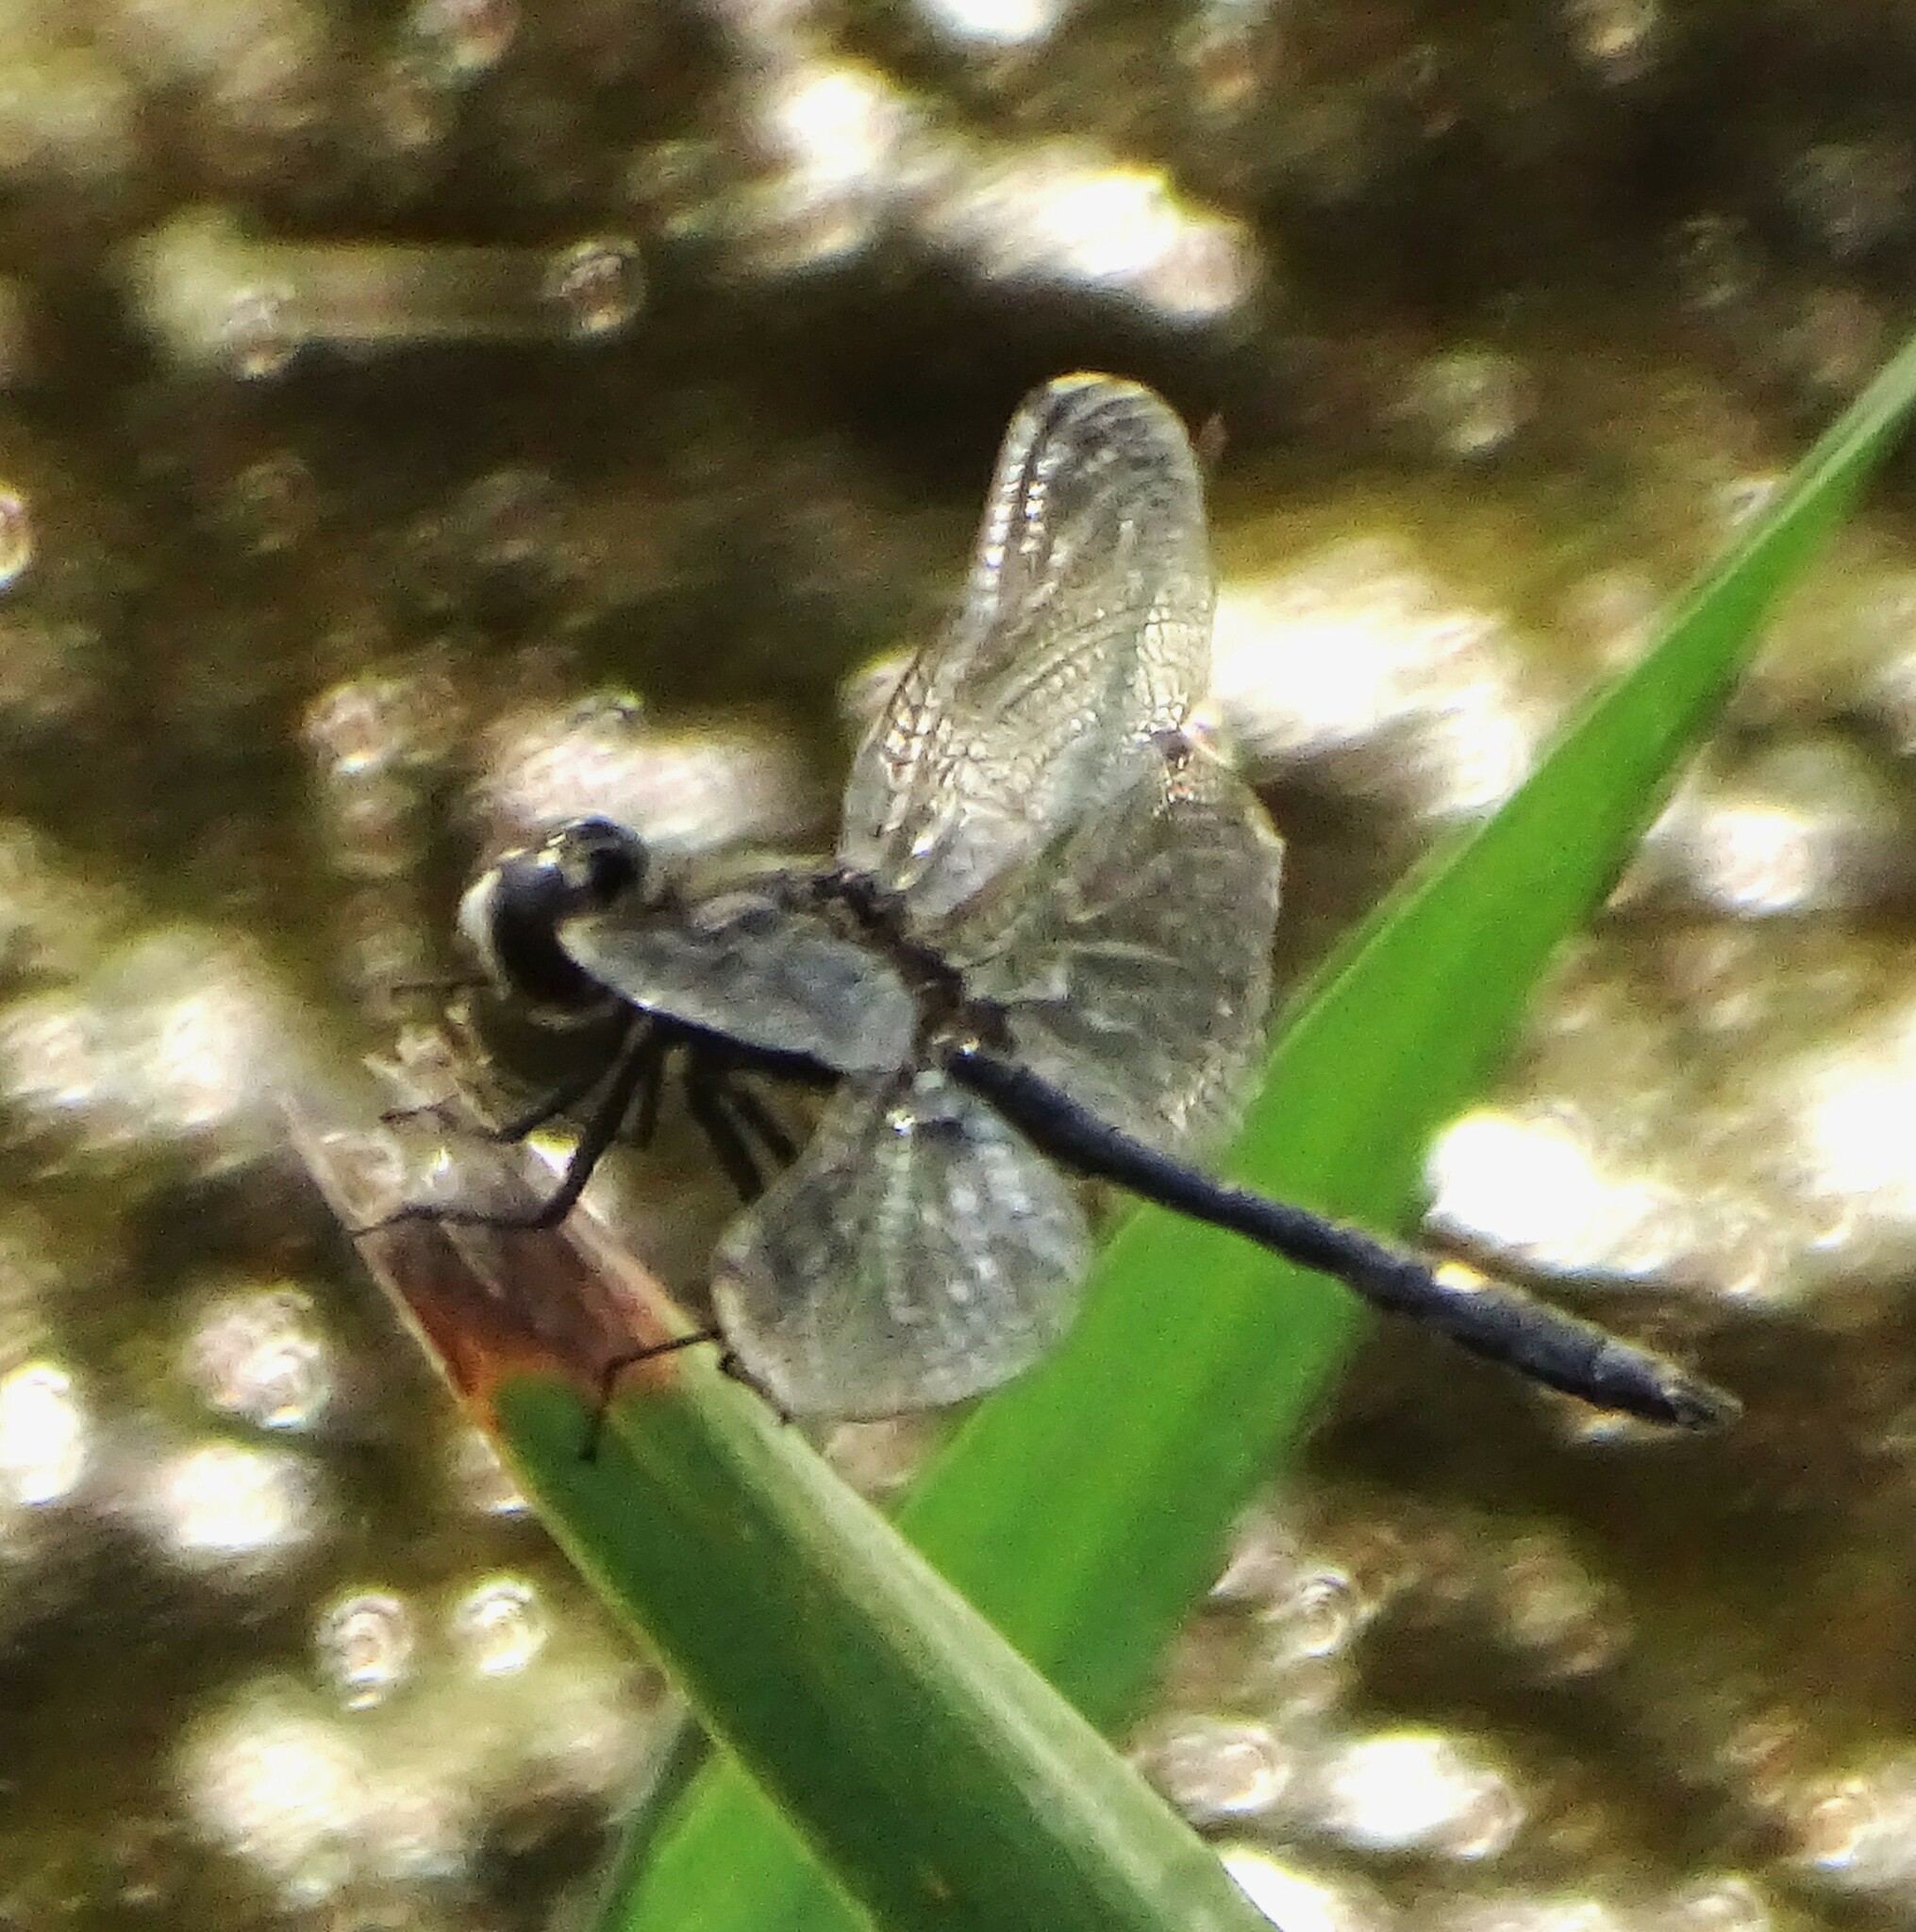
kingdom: Animalia
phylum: Arthropoda
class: Insecta
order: Odonata
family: Libellulidae
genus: Leucorrhinia
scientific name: Leucorrhinia intacta
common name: Dot-tailed whiteface
